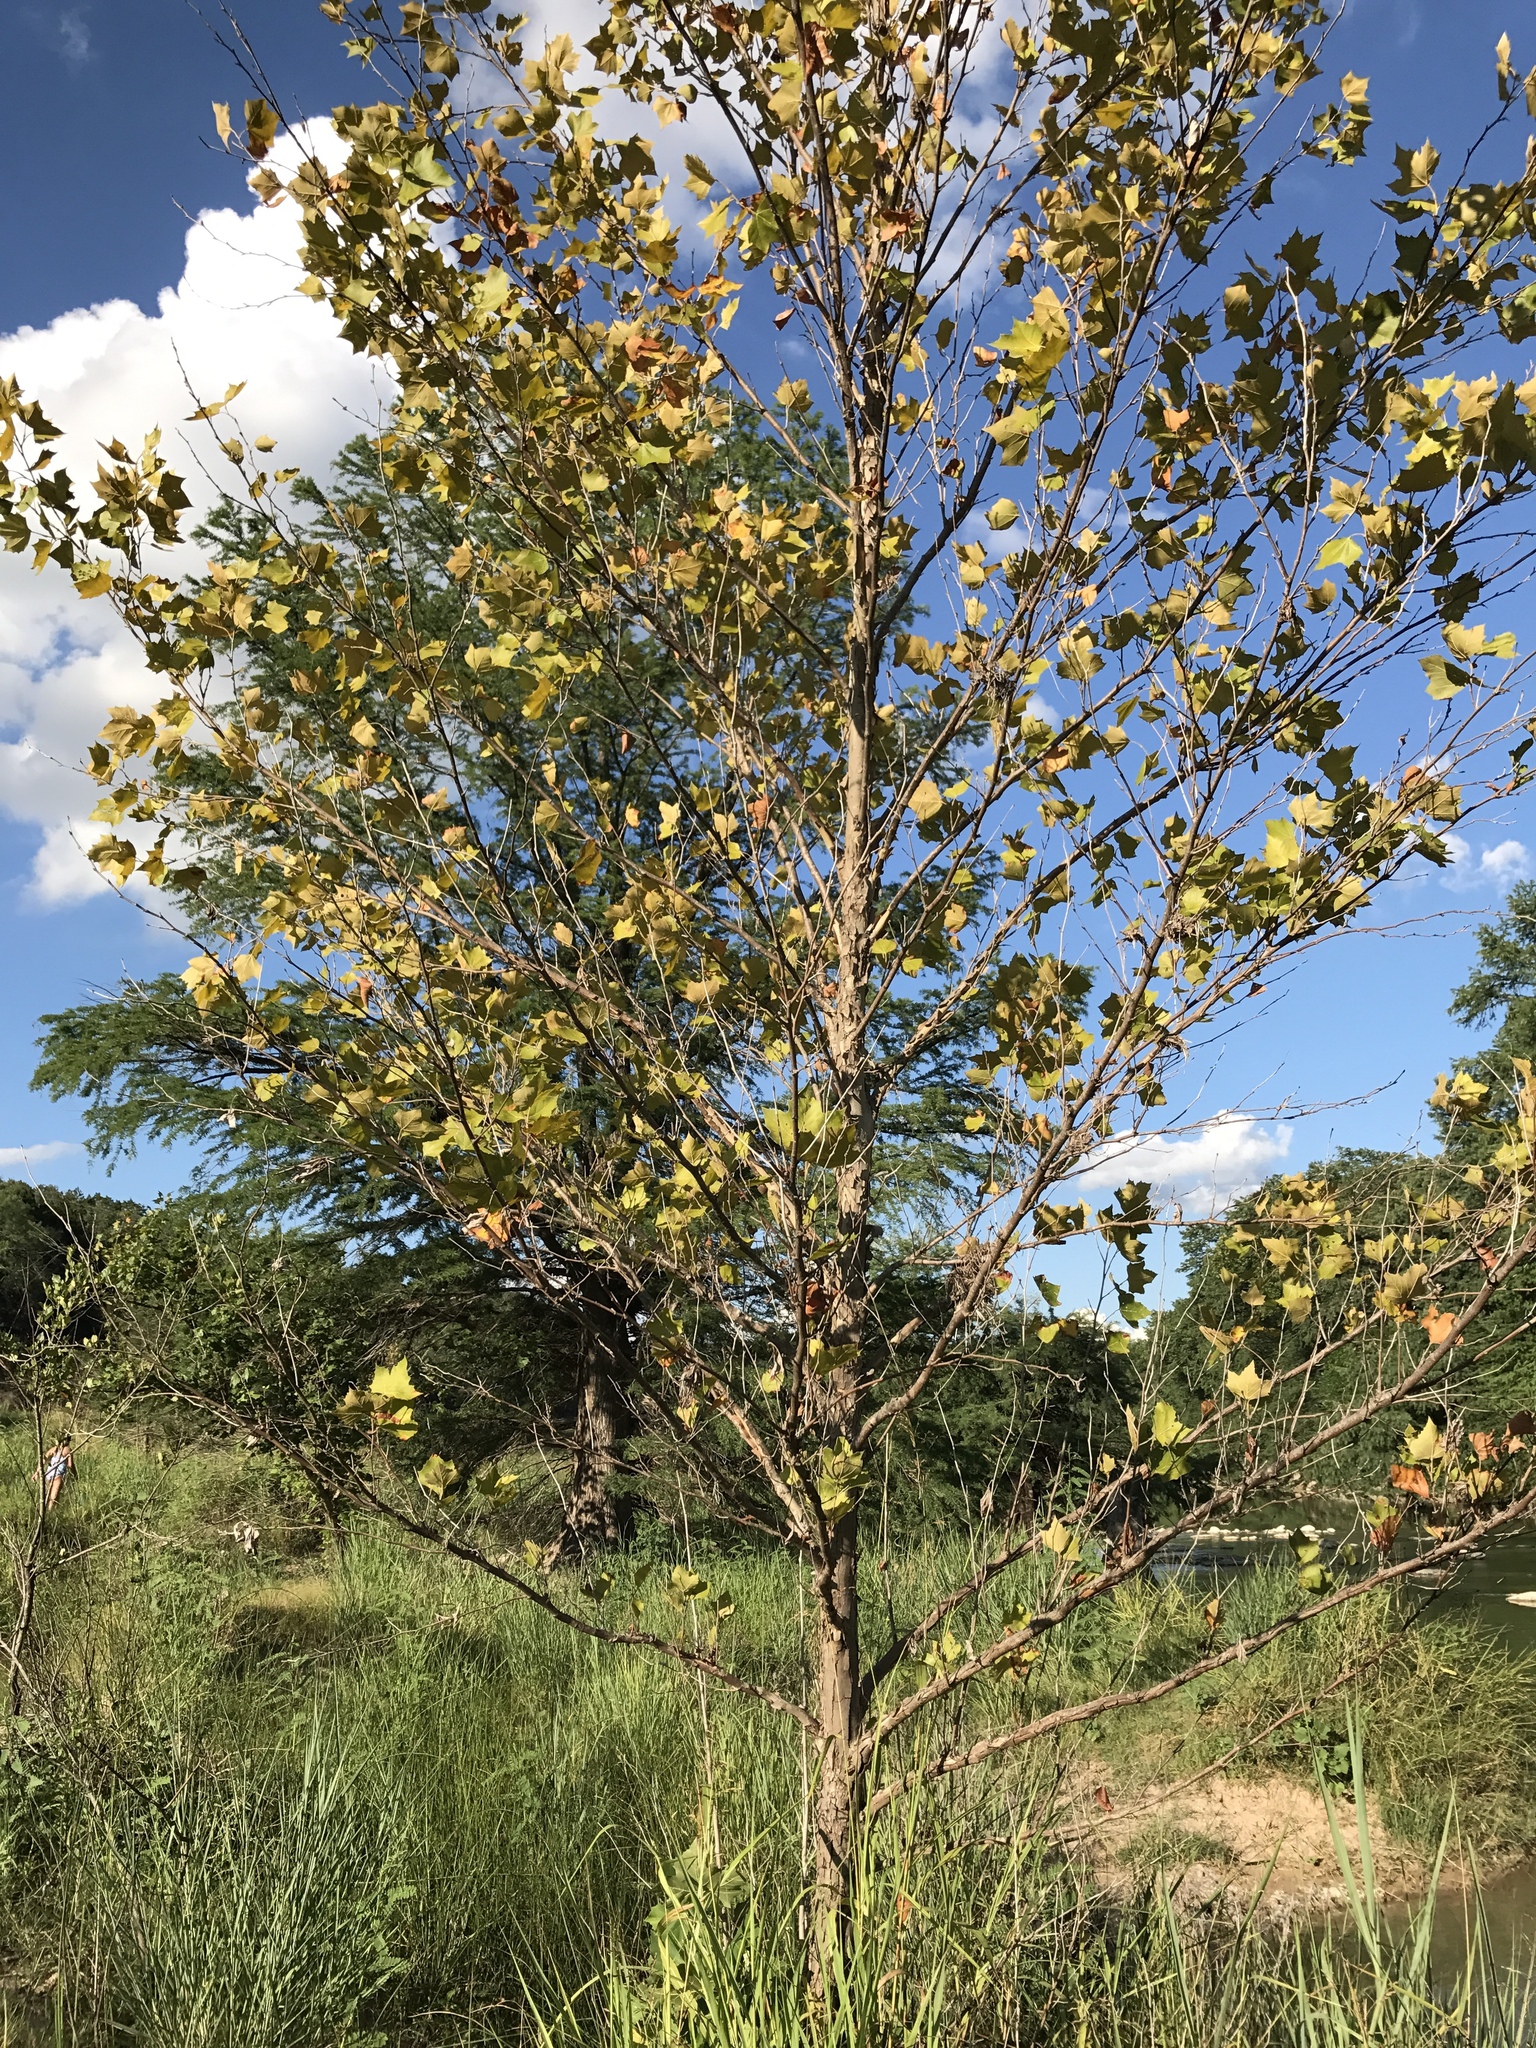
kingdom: Plantae
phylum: Tracheophyta
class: Magnoliopsida
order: Proteales
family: Platanaceae
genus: Platanus
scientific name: Platanus occidentalis
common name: American sycamore
